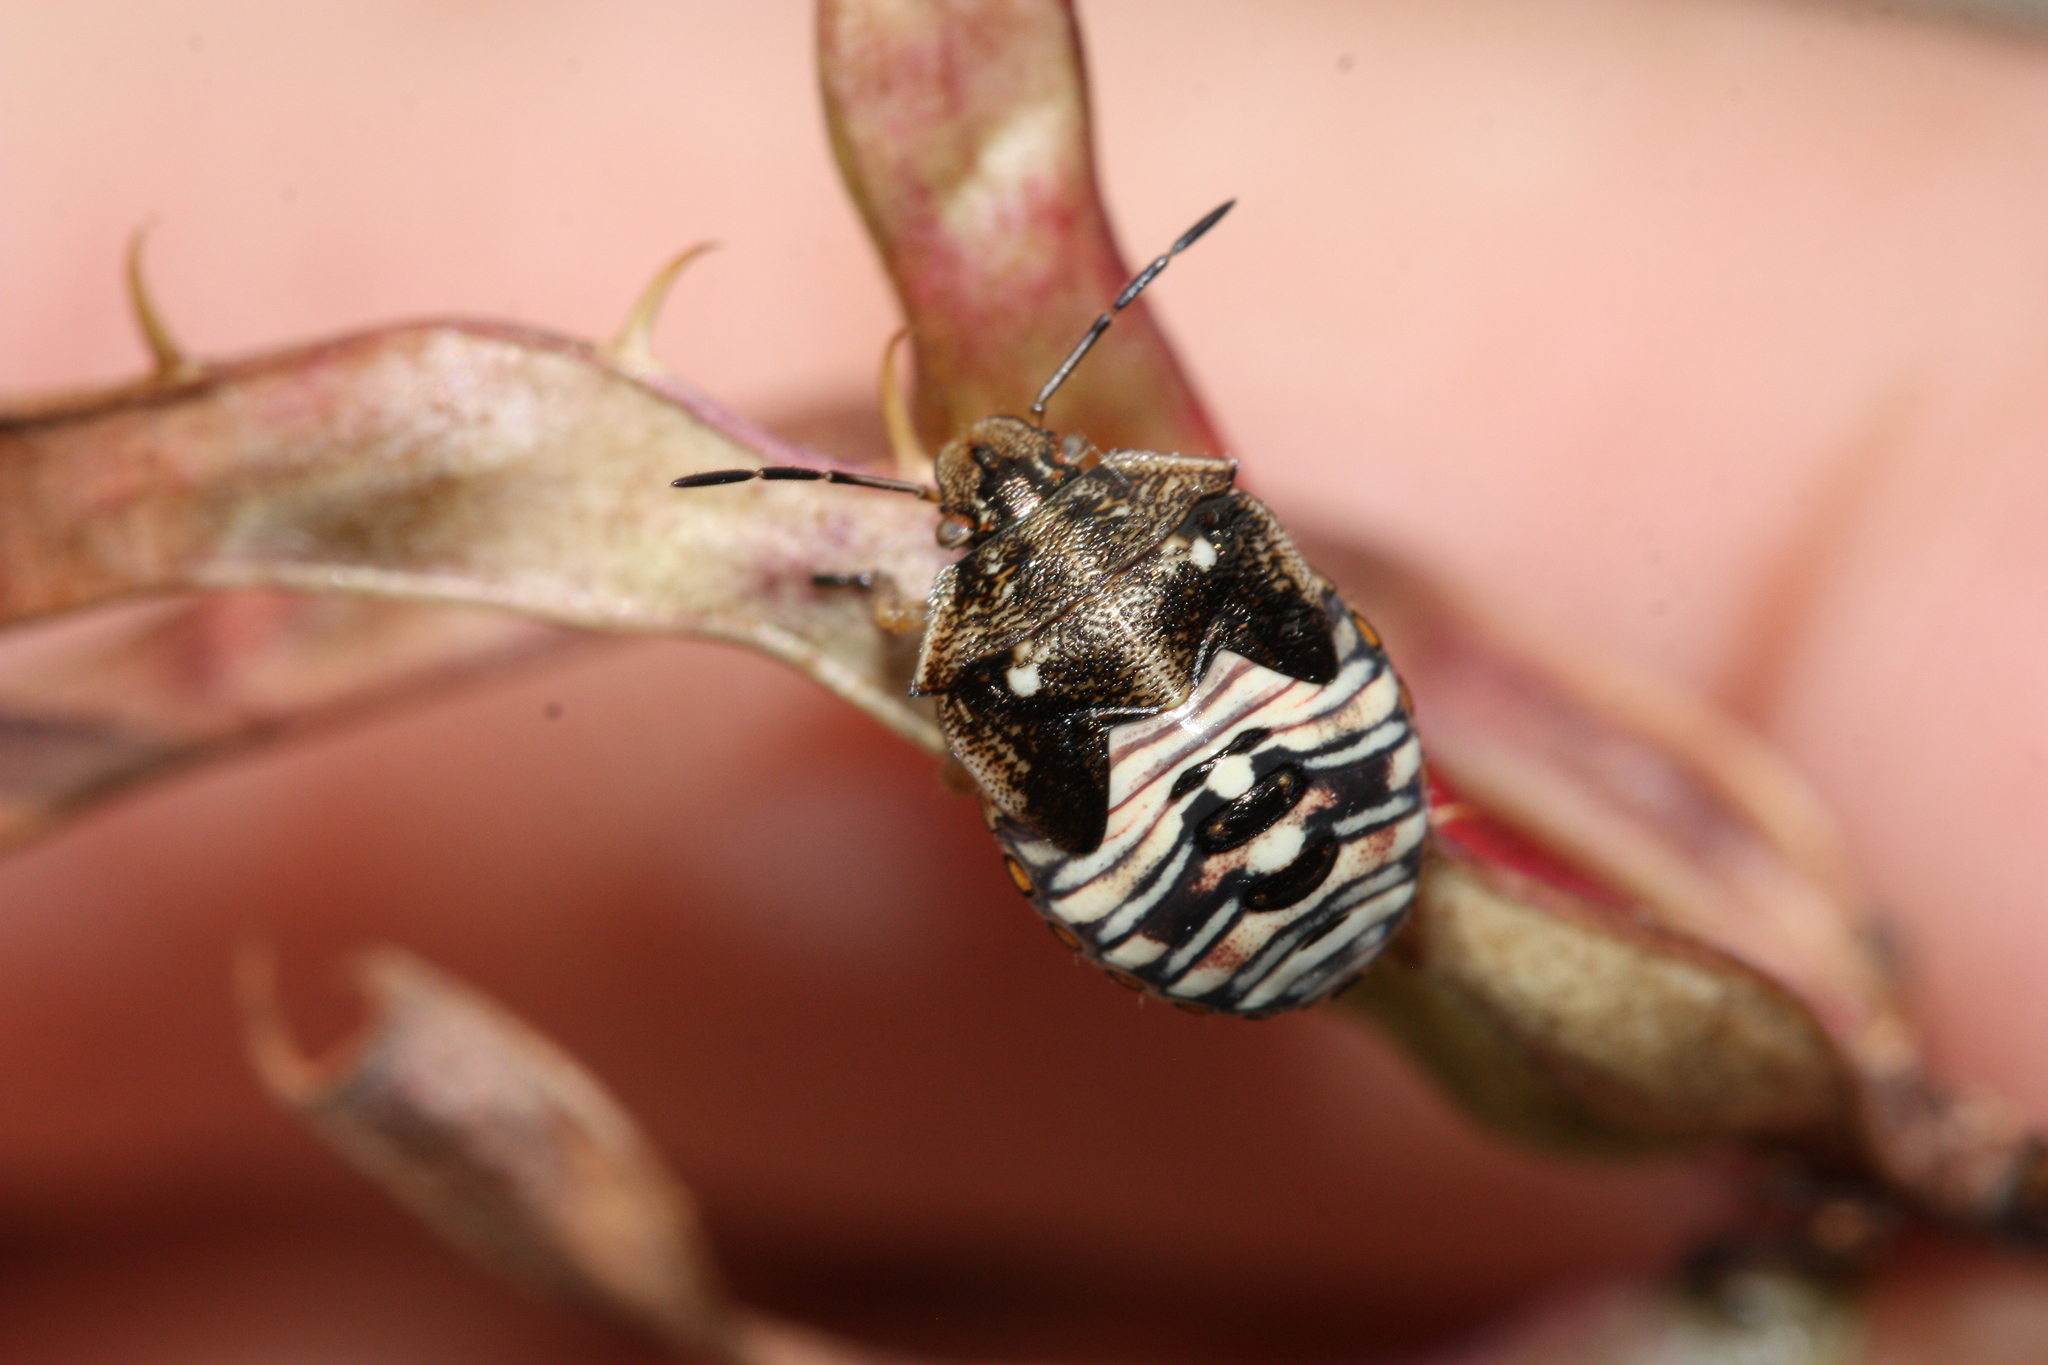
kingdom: Animalia
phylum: Arthropoda
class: Insecta
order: Hemiptera
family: Pentatomidae
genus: Thyanta
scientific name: Thyanta accerra
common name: Stink bug
